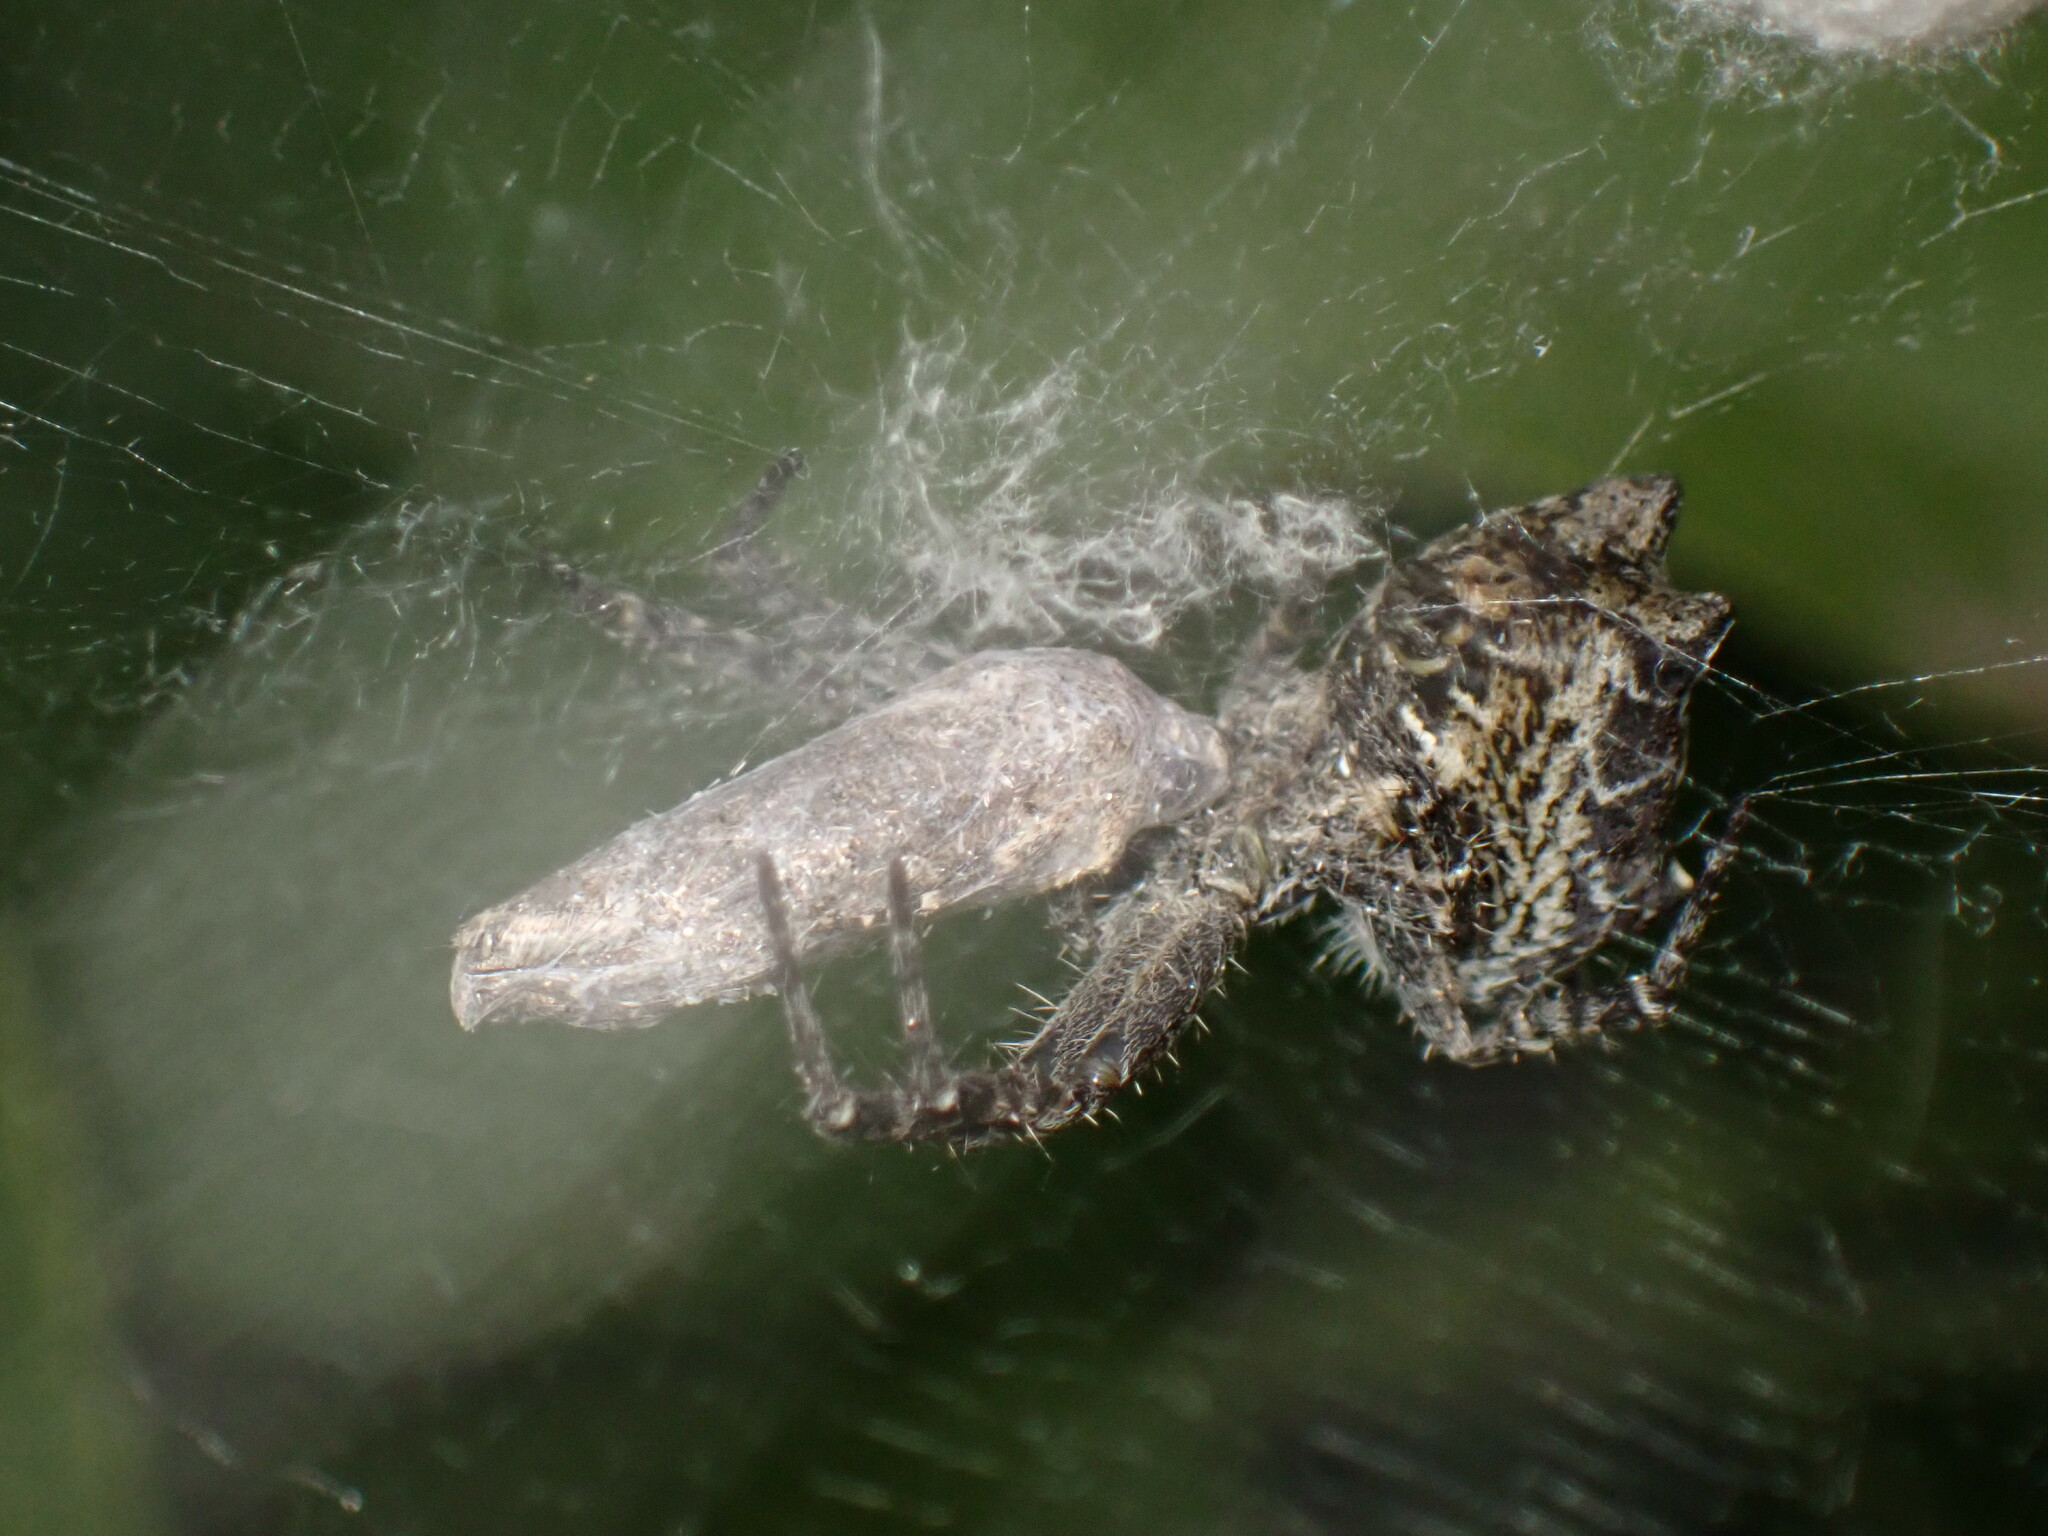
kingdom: Animalia
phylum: Arthropoda
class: Arachnida
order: Araneae
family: Araneidae
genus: Cyrtophora
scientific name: Cyrtophora citricola
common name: Orb weavers
